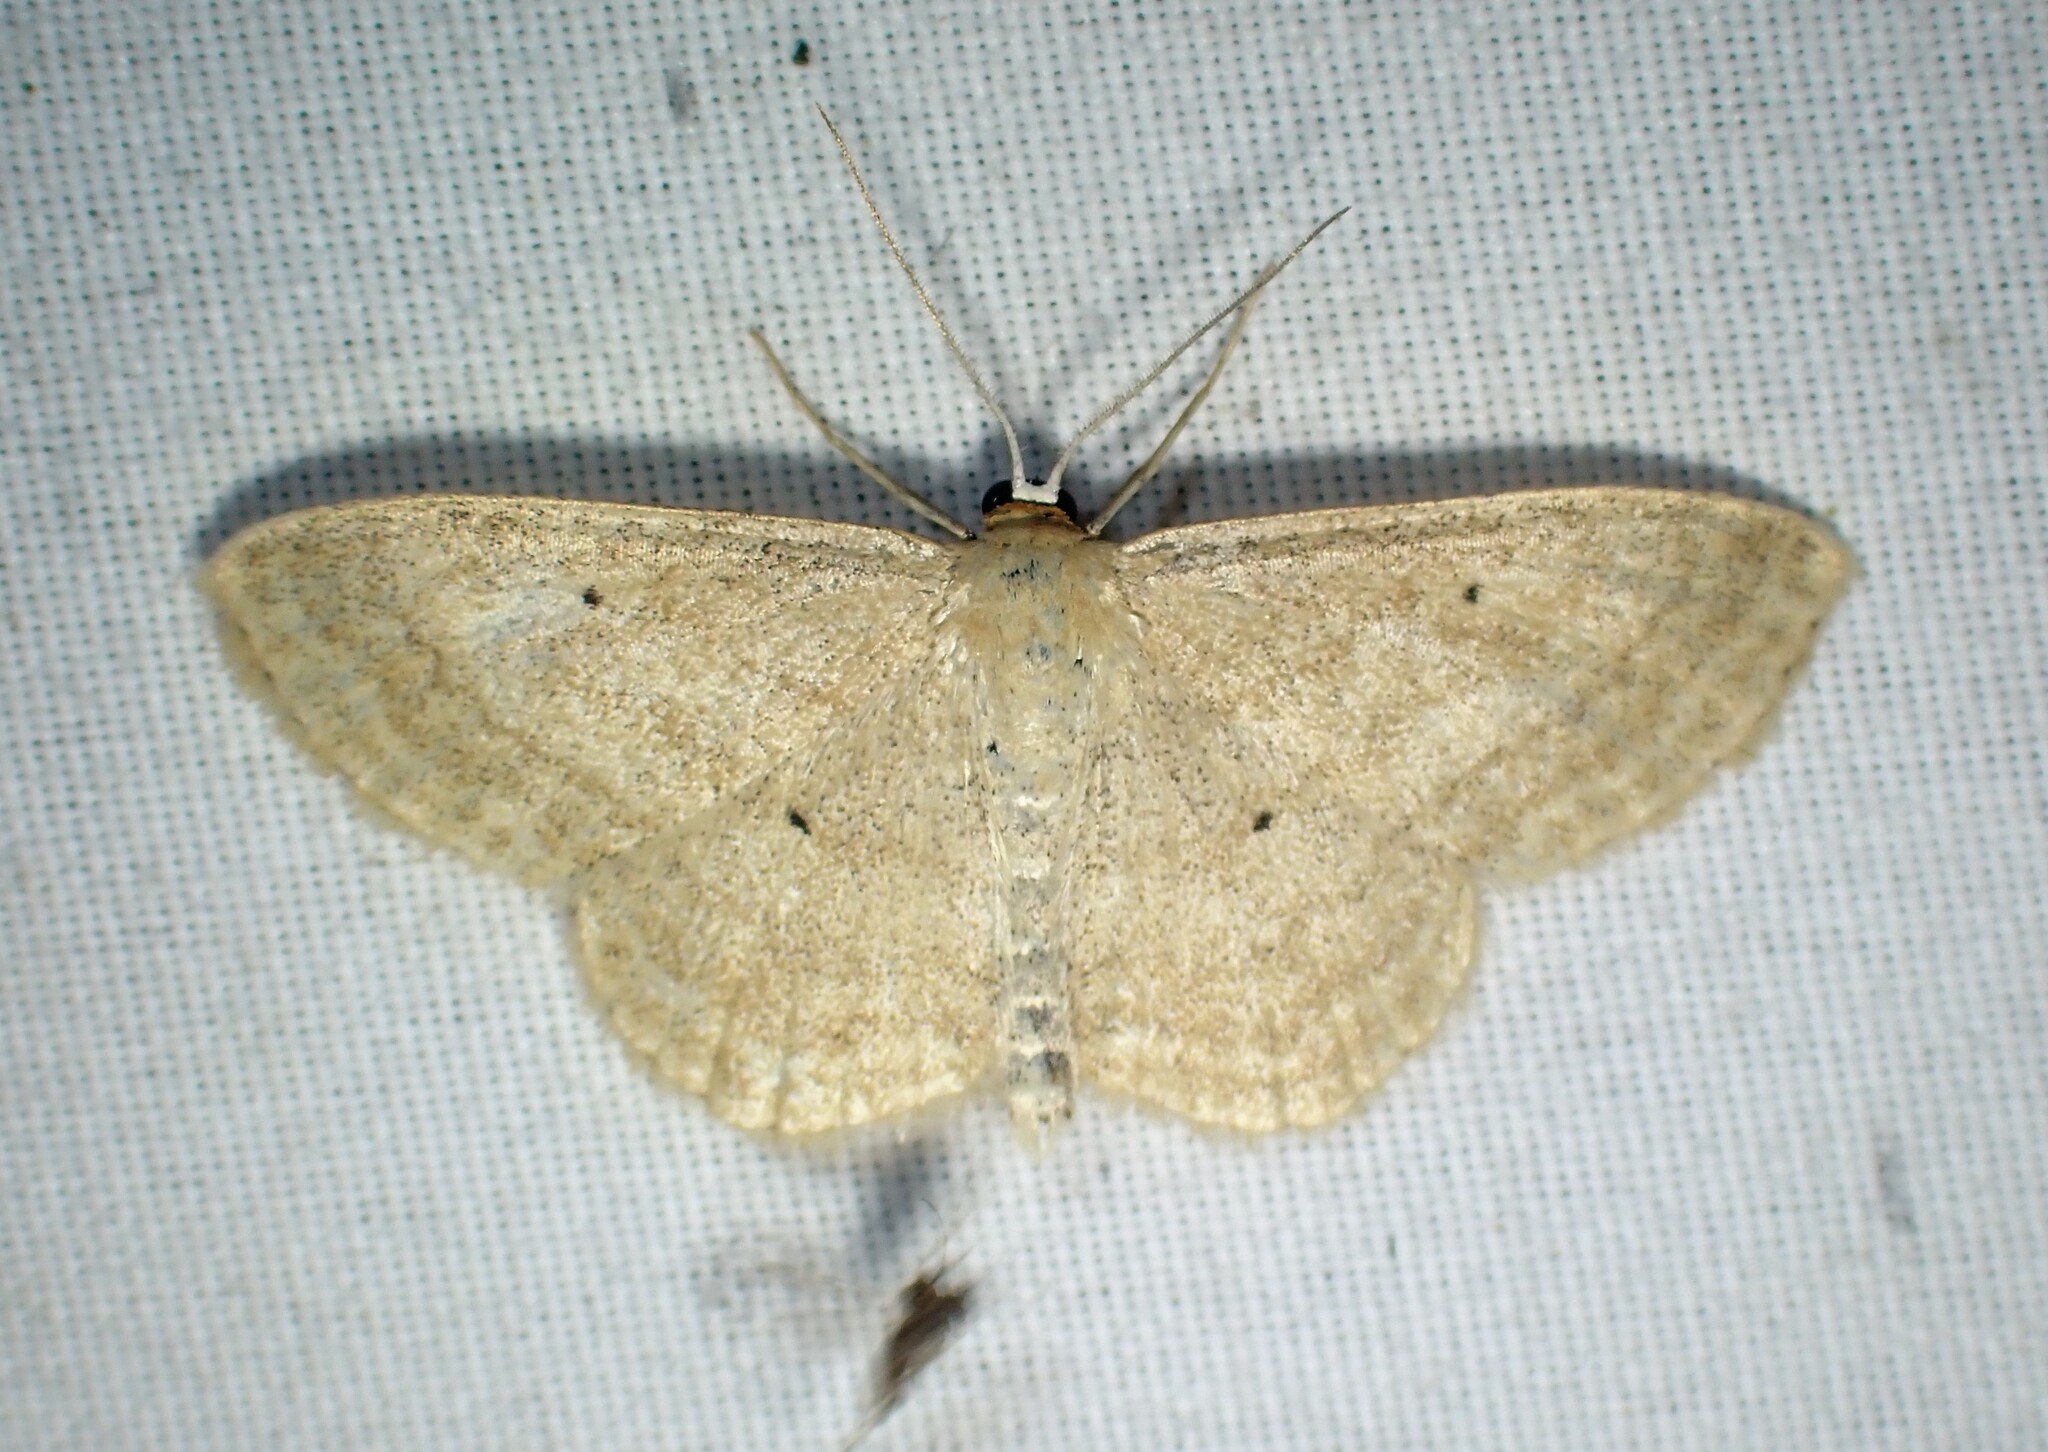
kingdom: Animalia
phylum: Arthropoda
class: Insecta
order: Lepidoptera
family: Geometridae
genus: Scopula
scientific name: Scopula inductata
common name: Soft-lined wave
